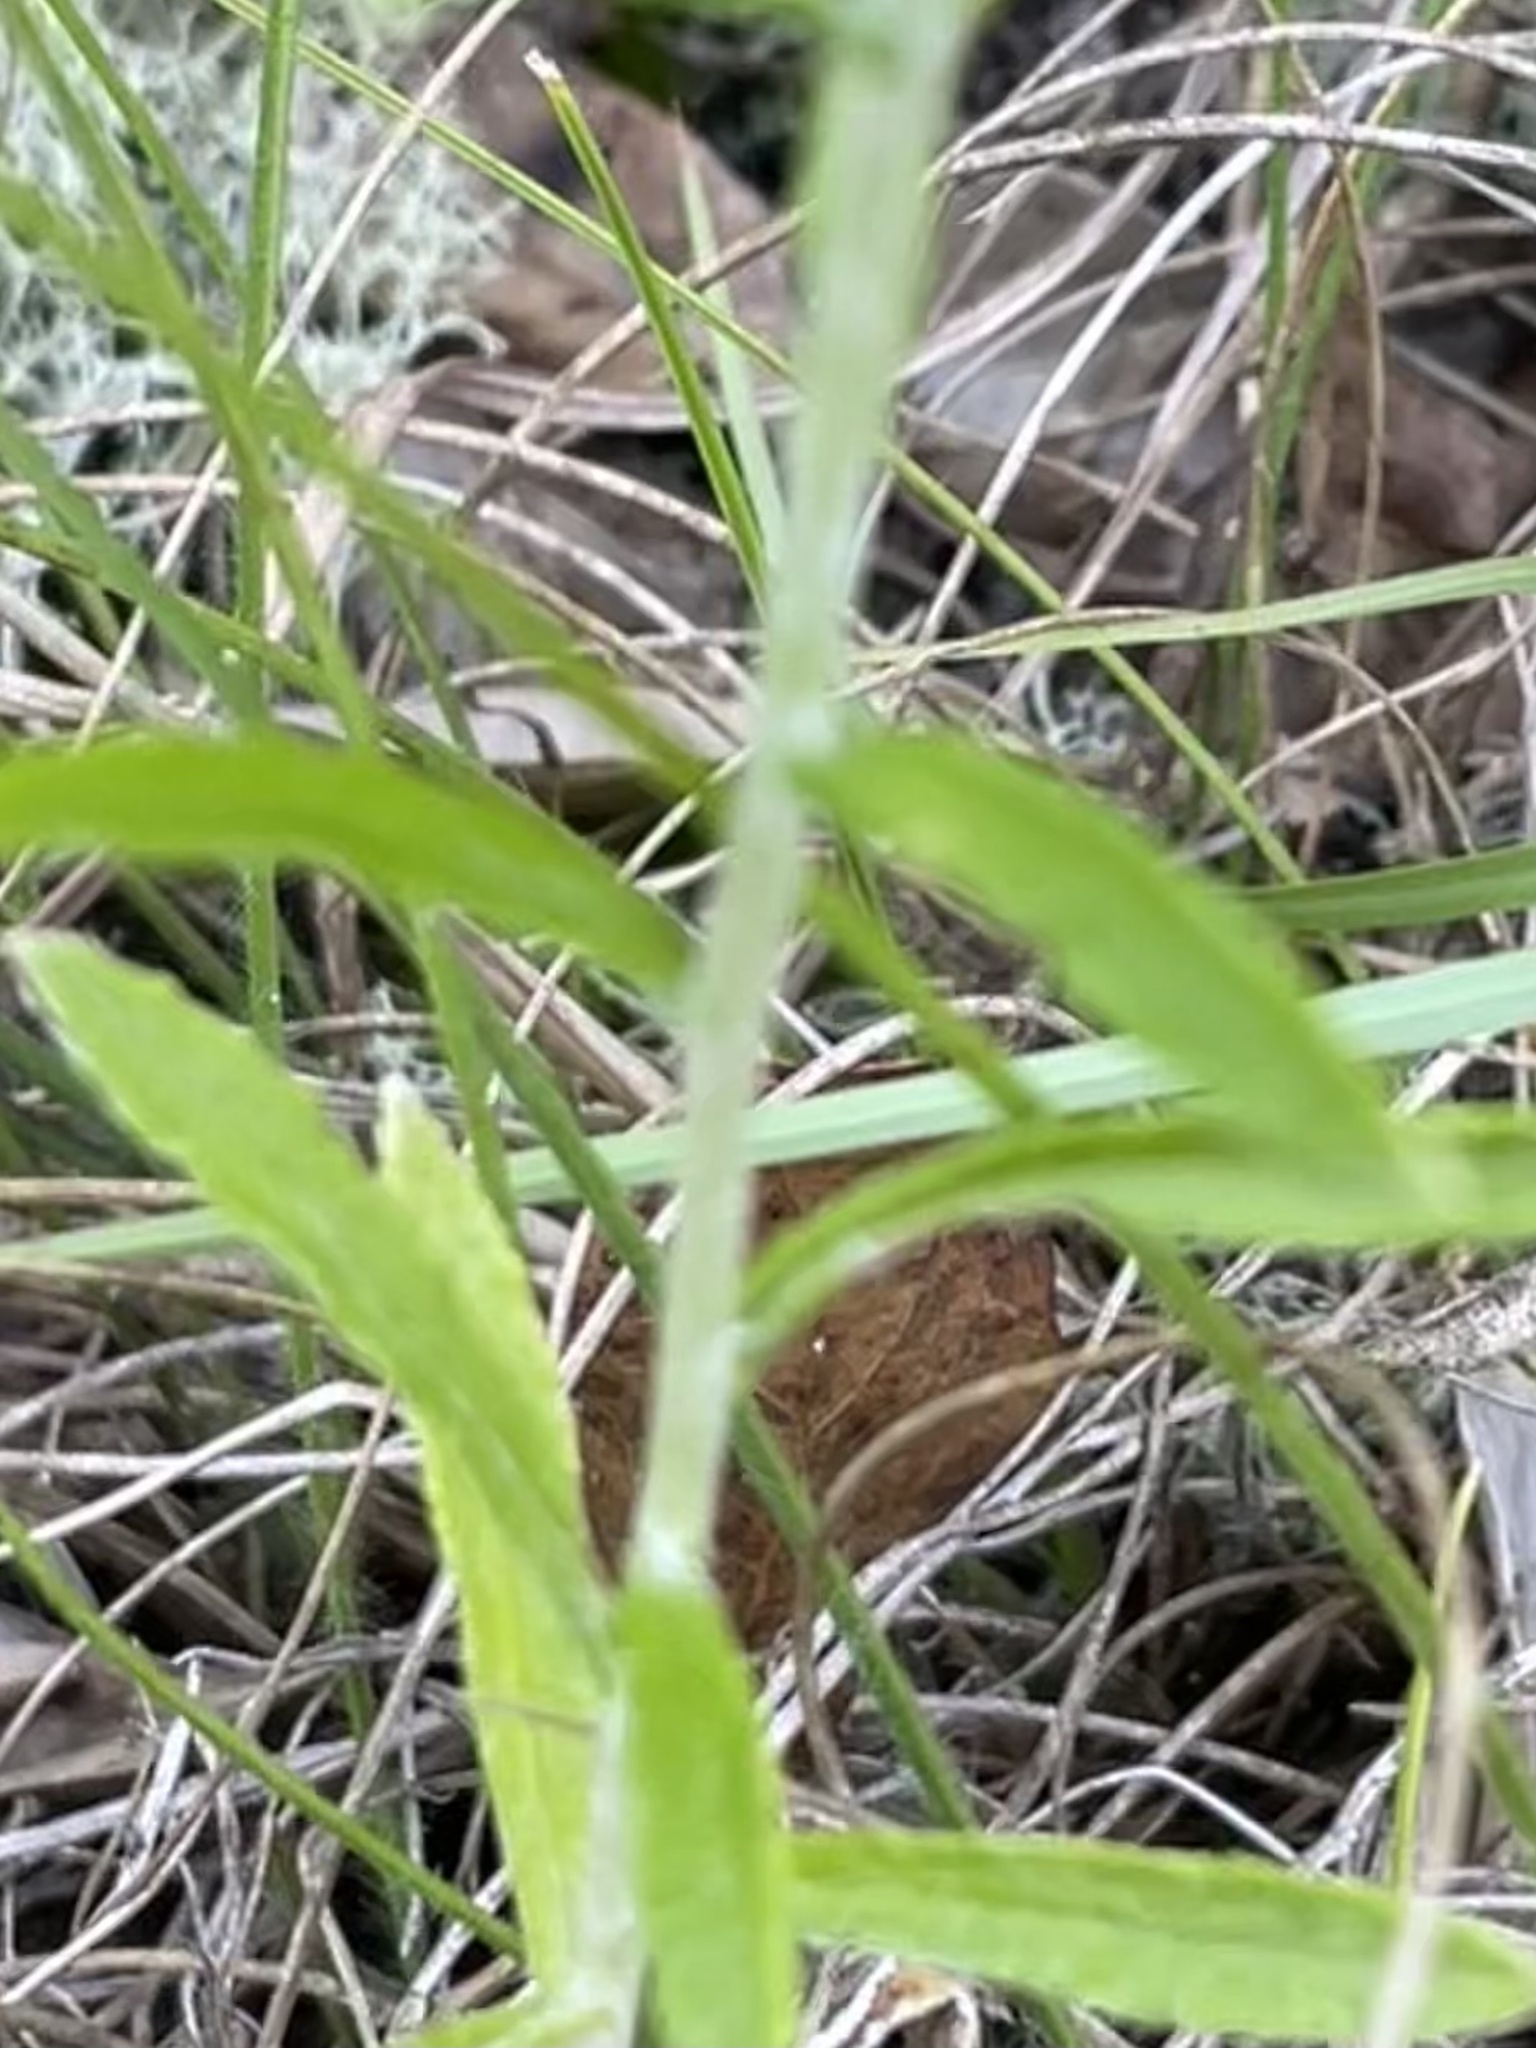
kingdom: Plantae
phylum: Tracheophyta
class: Magnoliopsida
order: Asterales
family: Asteraceae
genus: Pseudognaphalium
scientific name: Pseudognaphalium obtusifolium
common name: Eastern rabbit-tobacco
